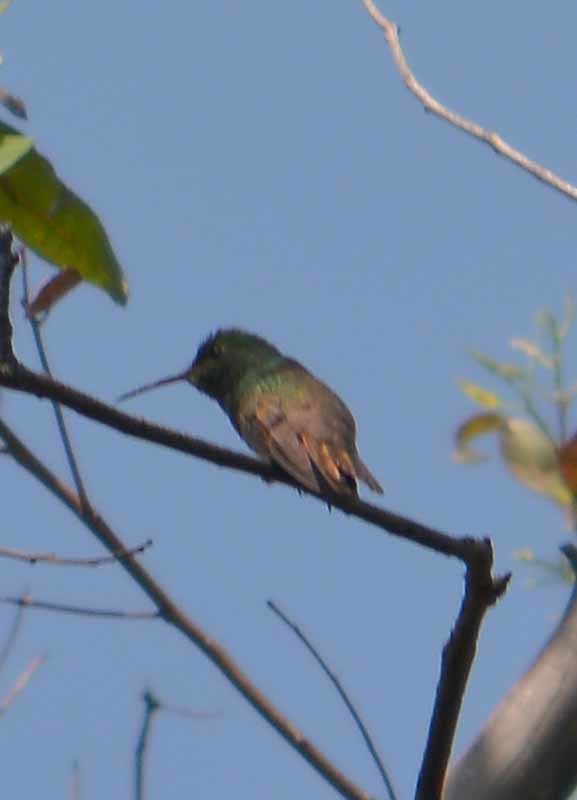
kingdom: Animalia
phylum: Chordata
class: Aves
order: Apodiformes
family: Trochilidae
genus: Saucerottia
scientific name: Saucerottia beryllina
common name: Berylline hummingbird
